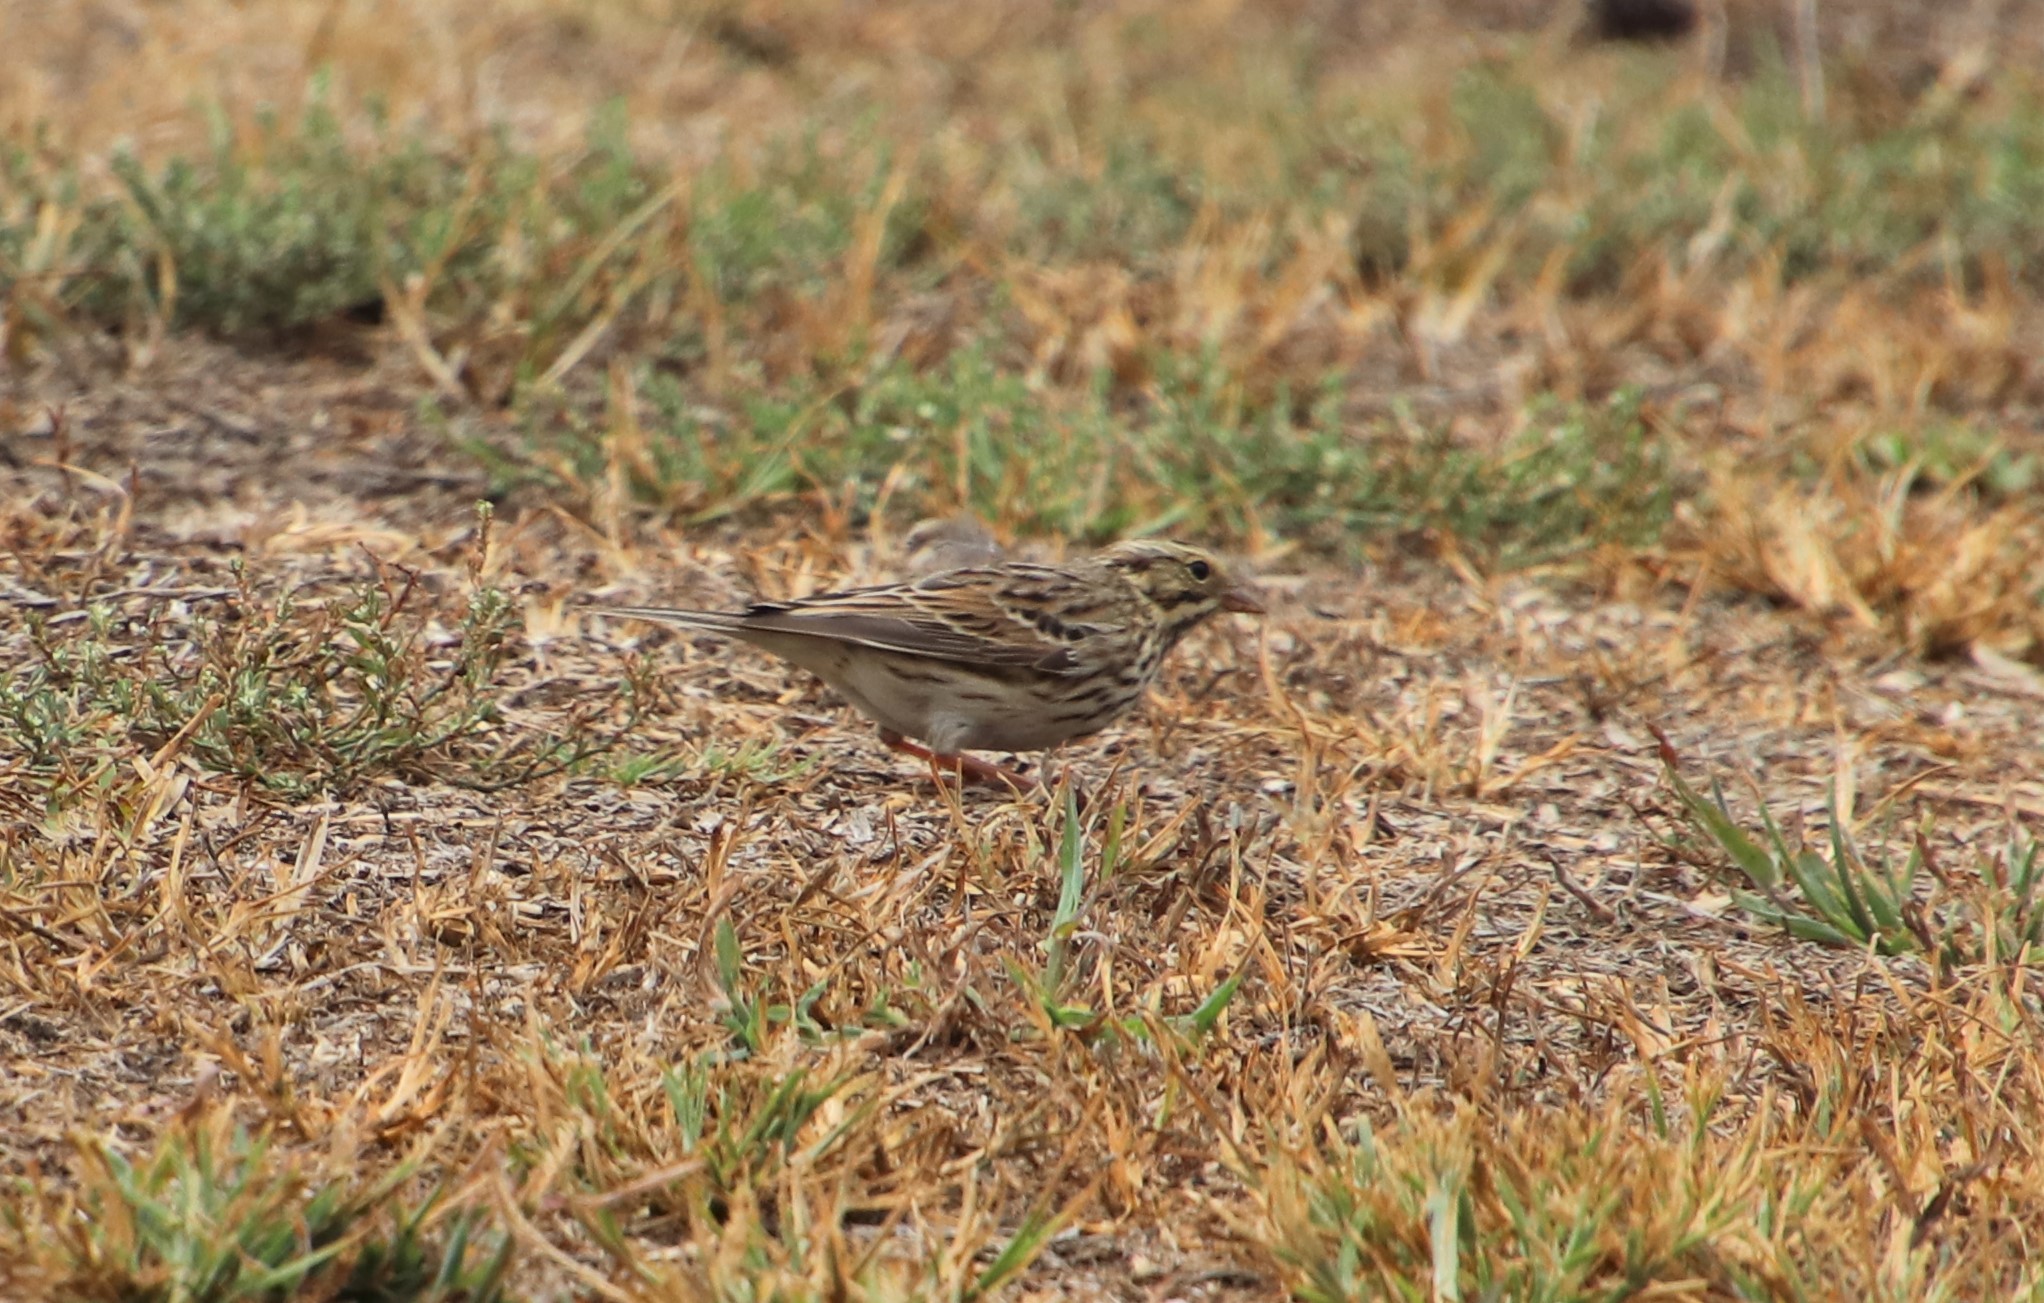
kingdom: Animalia
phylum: Chordata
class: Aves
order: Passeriformes
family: Passerellidae
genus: Passerculus
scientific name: Passerculus sandwichensis
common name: Savannah sparrow
